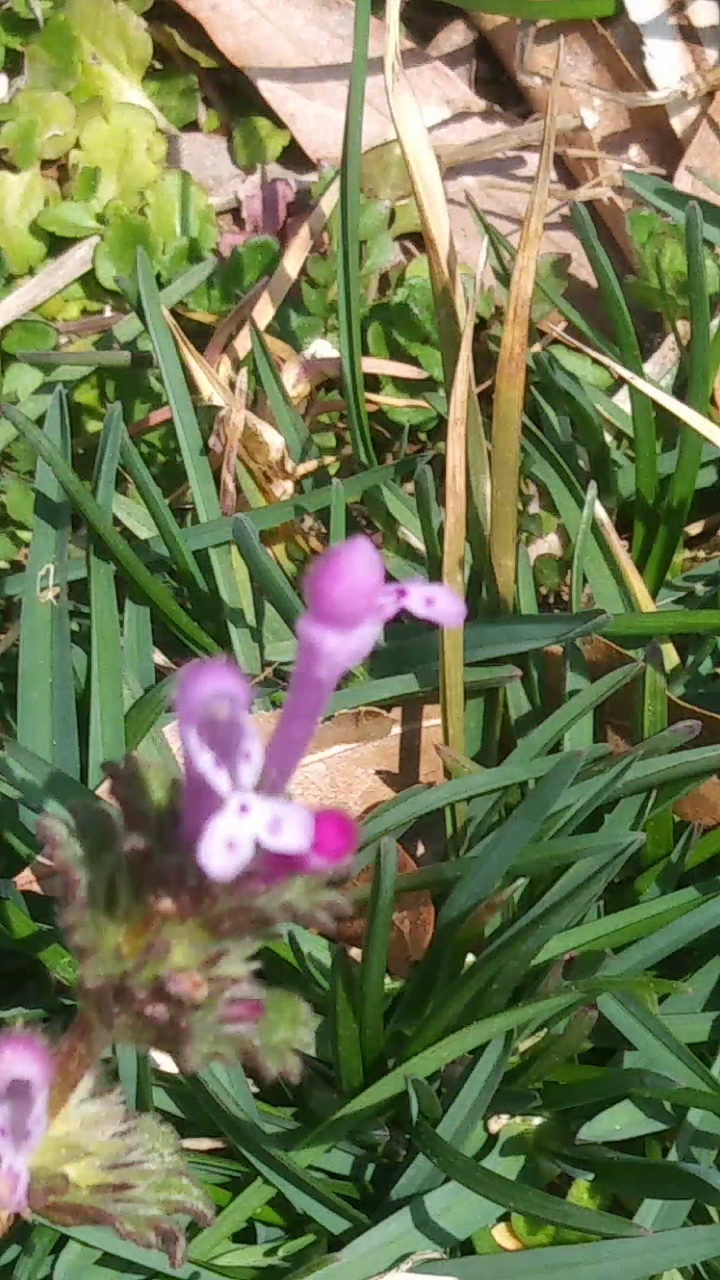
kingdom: Plantae
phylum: Tracheophyta
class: Magnoliopsida
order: Lamiales
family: Lamiaceae
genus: Lamium
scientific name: Lamium amplexicaule
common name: Henbit dead-nettle
